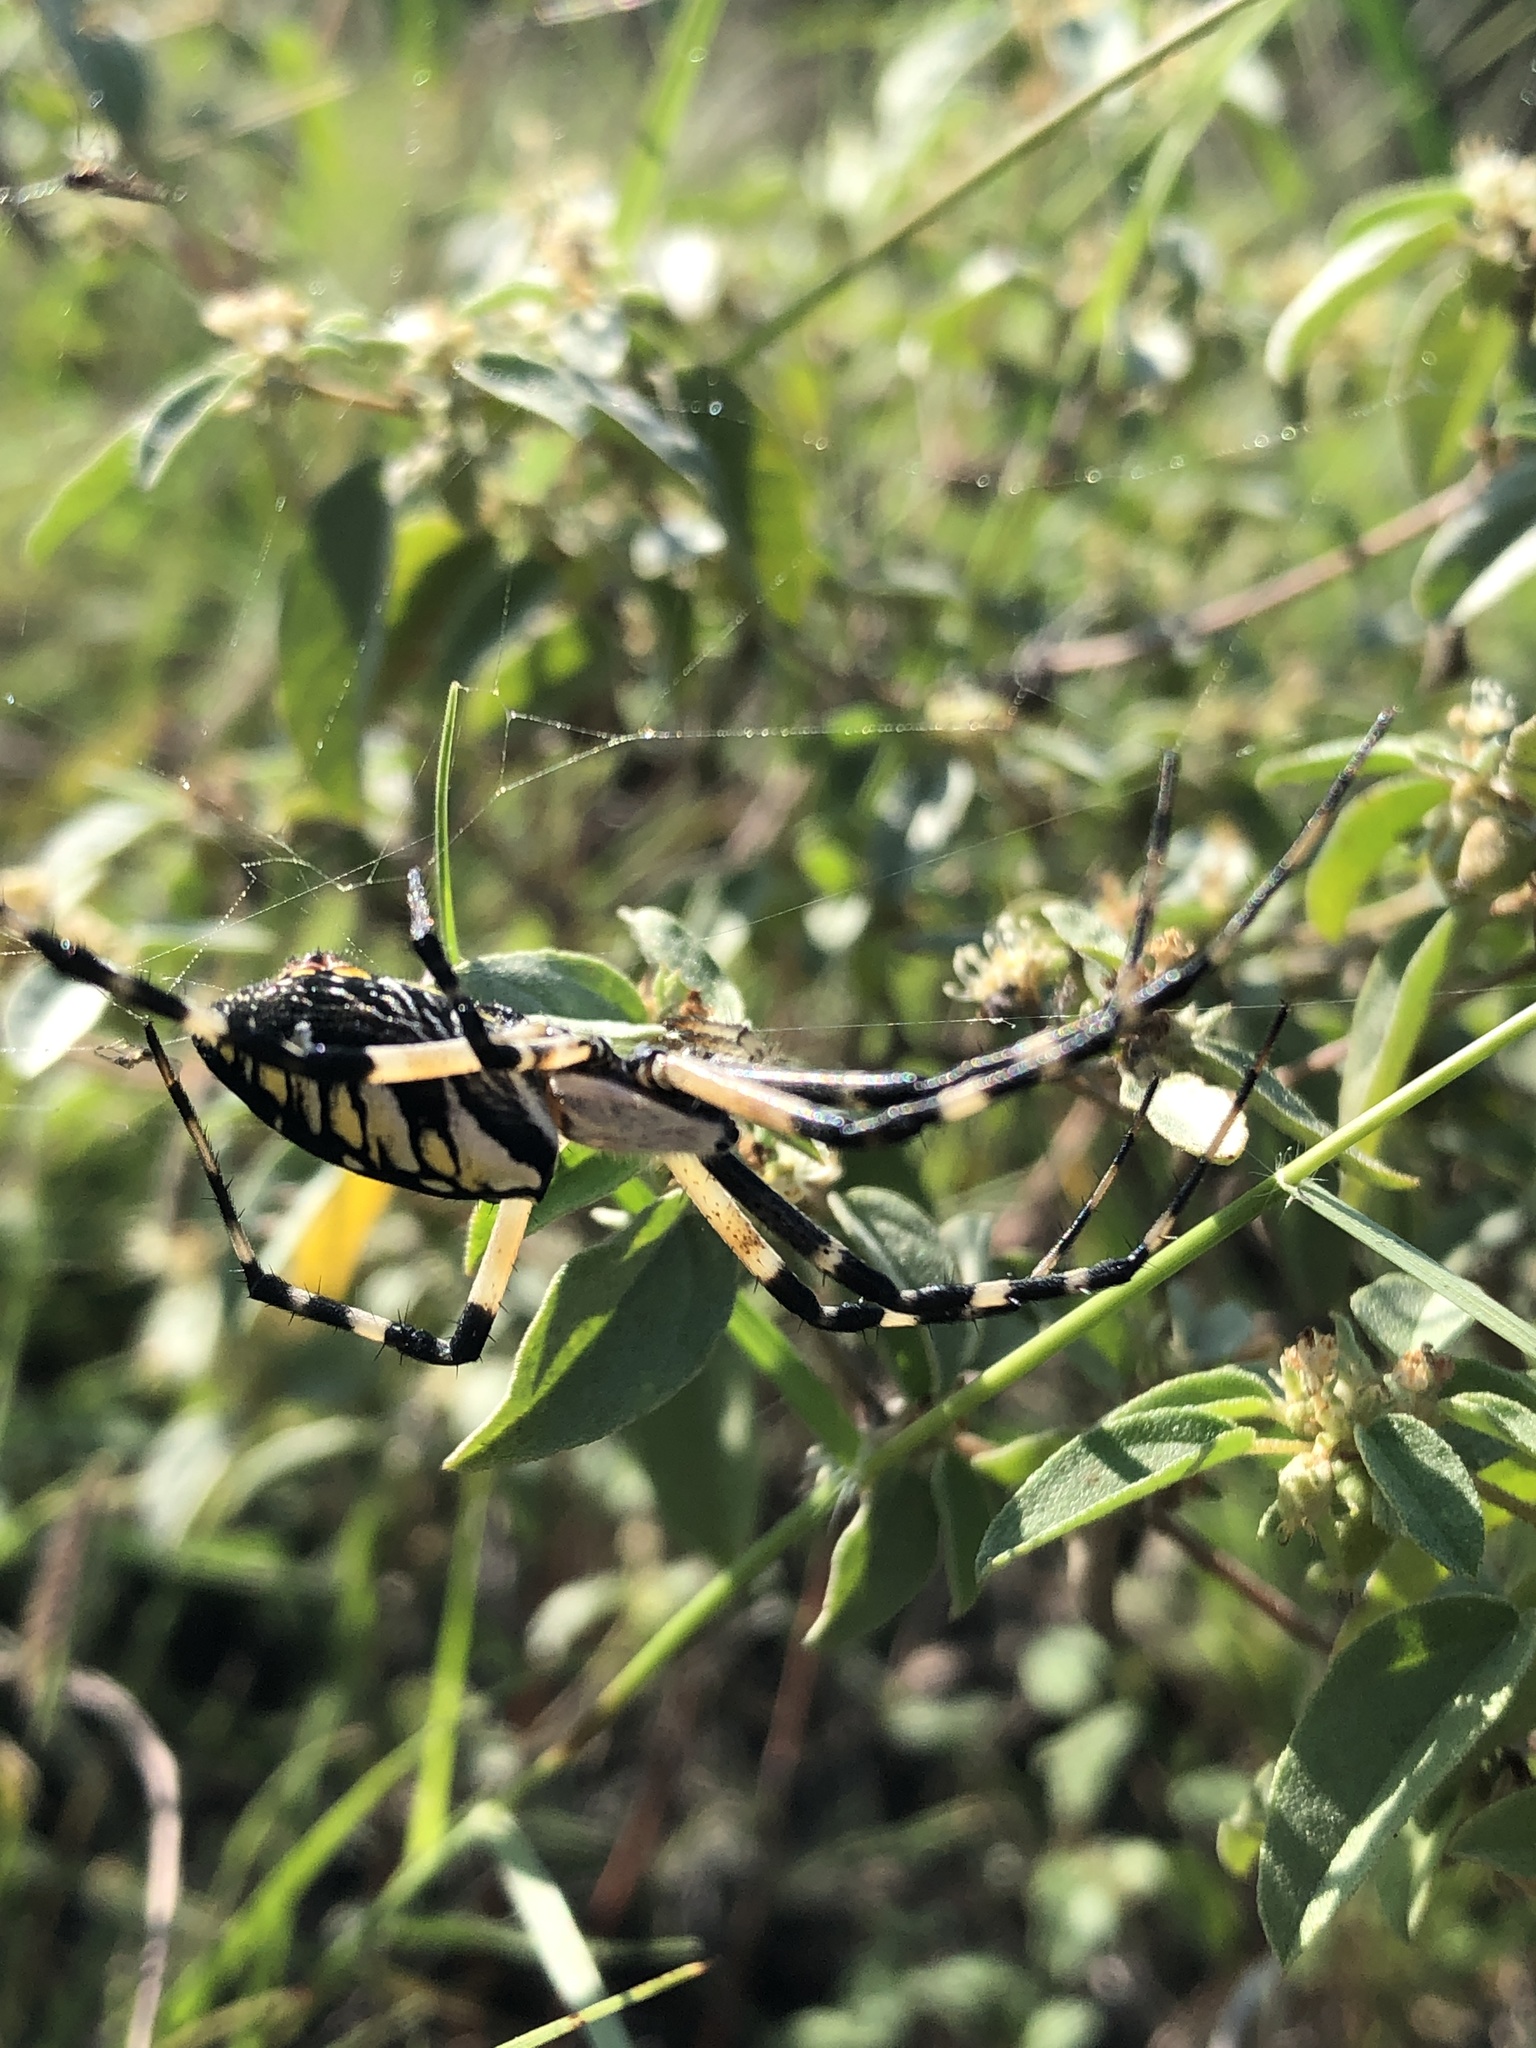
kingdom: Animalia
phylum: Arthropoda
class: Arachnida
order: Araneae
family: Araneidae
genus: Argiope
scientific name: Argiope aurantia
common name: Orb weavers
